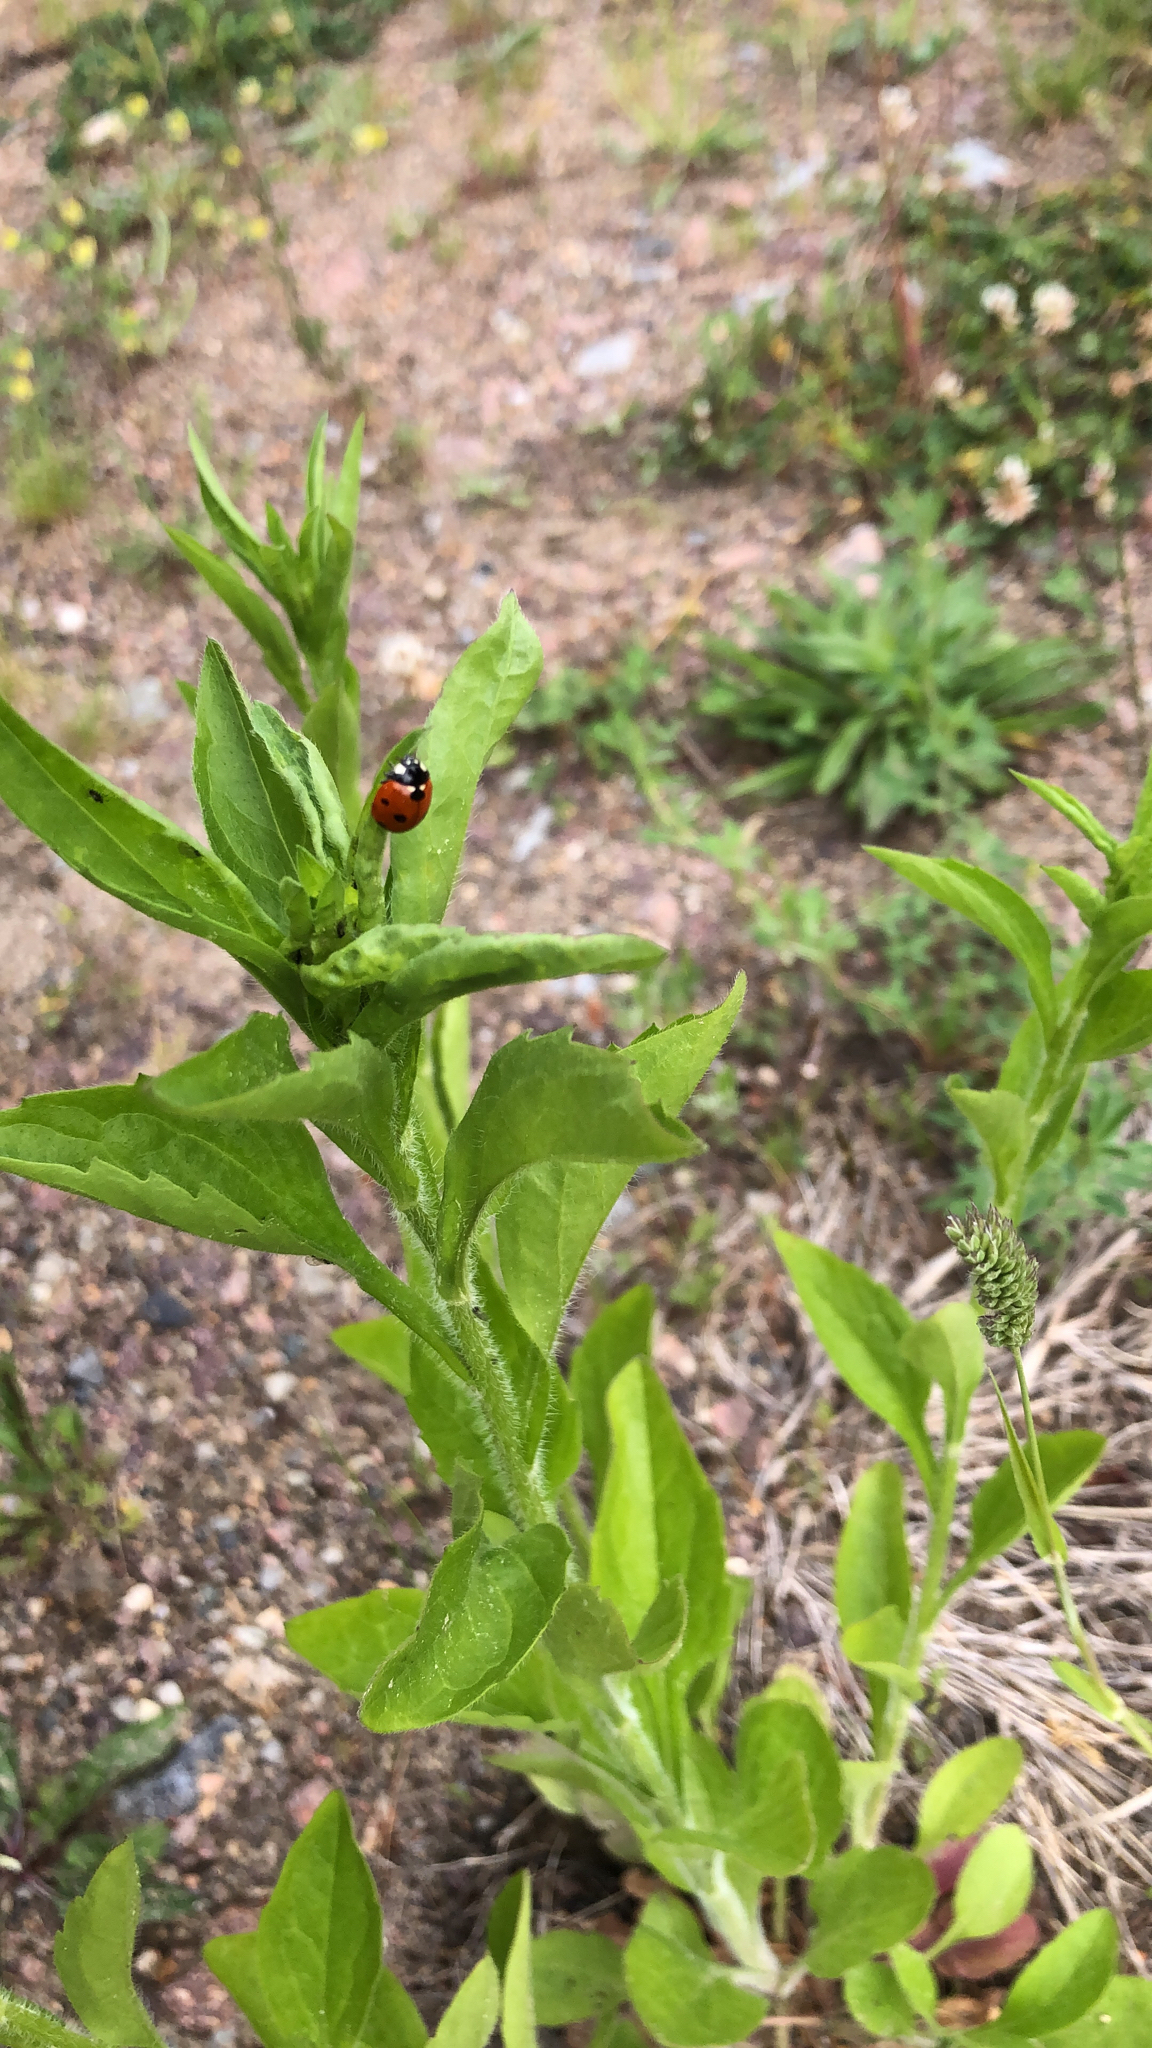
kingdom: Animalia
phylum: Arthropoda
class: Insecta
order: Coleoptera
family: Coccinellidae
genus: Coccinella
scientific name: Coccinella septempunctata
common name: Sevenspotted lady beetle
